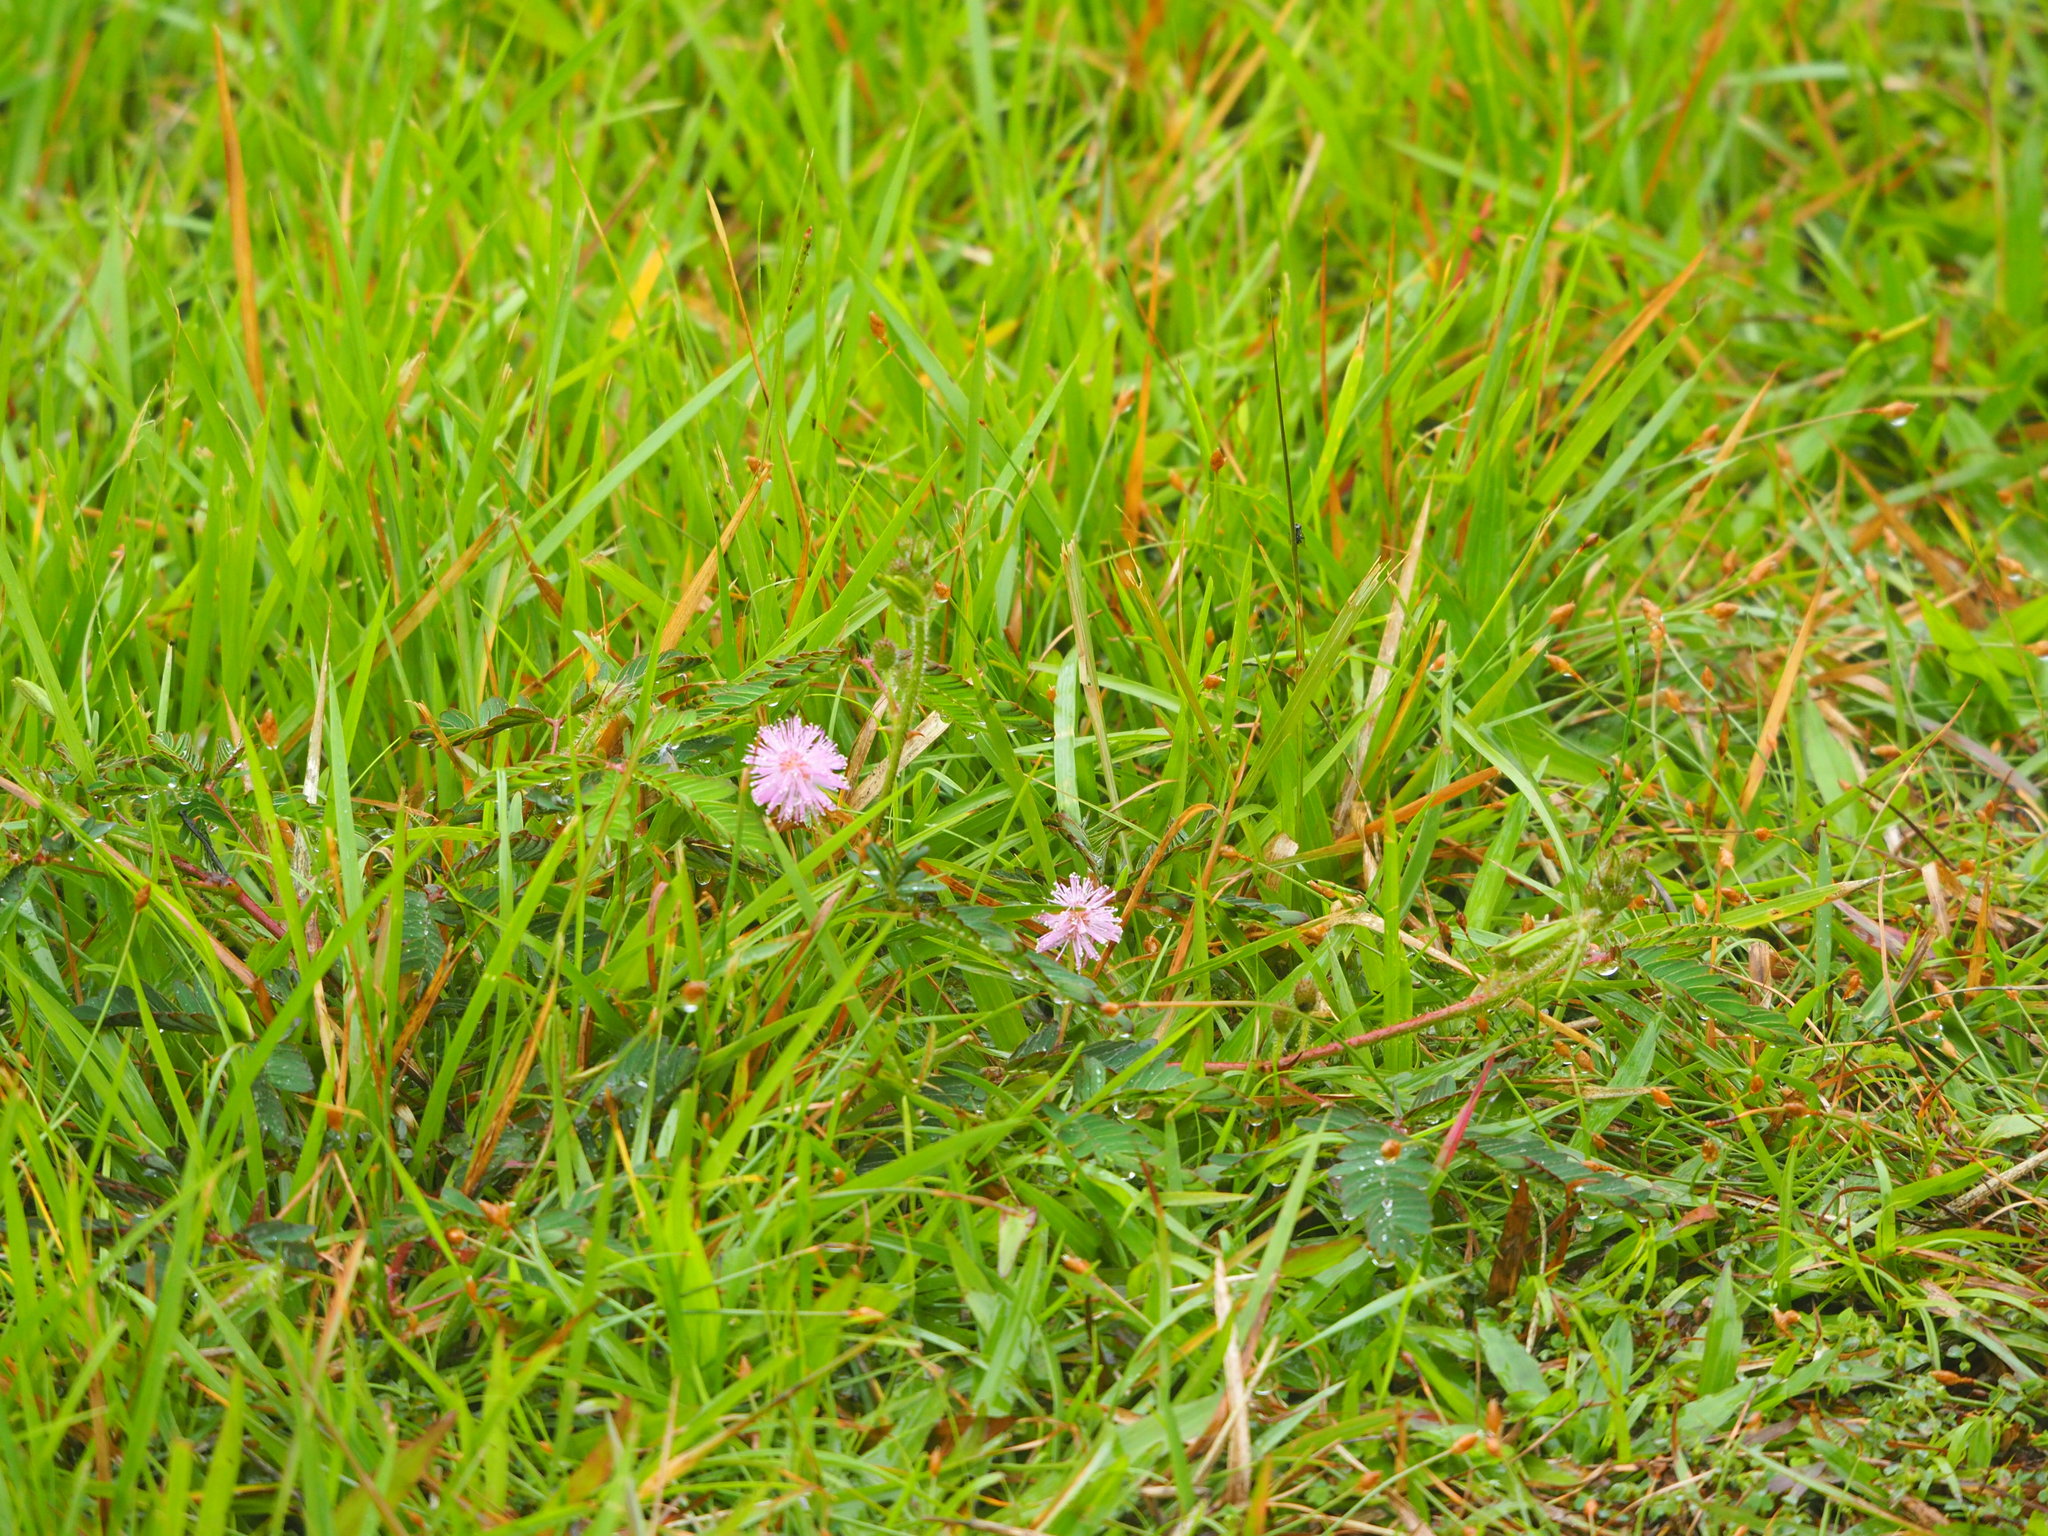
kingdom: Plantae
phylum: Tracheophyta
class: Magnoliopsida
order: Fabales
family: Fabaceae
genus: Mimosa
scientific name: Mimosa pudica
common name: Sensitive plant
